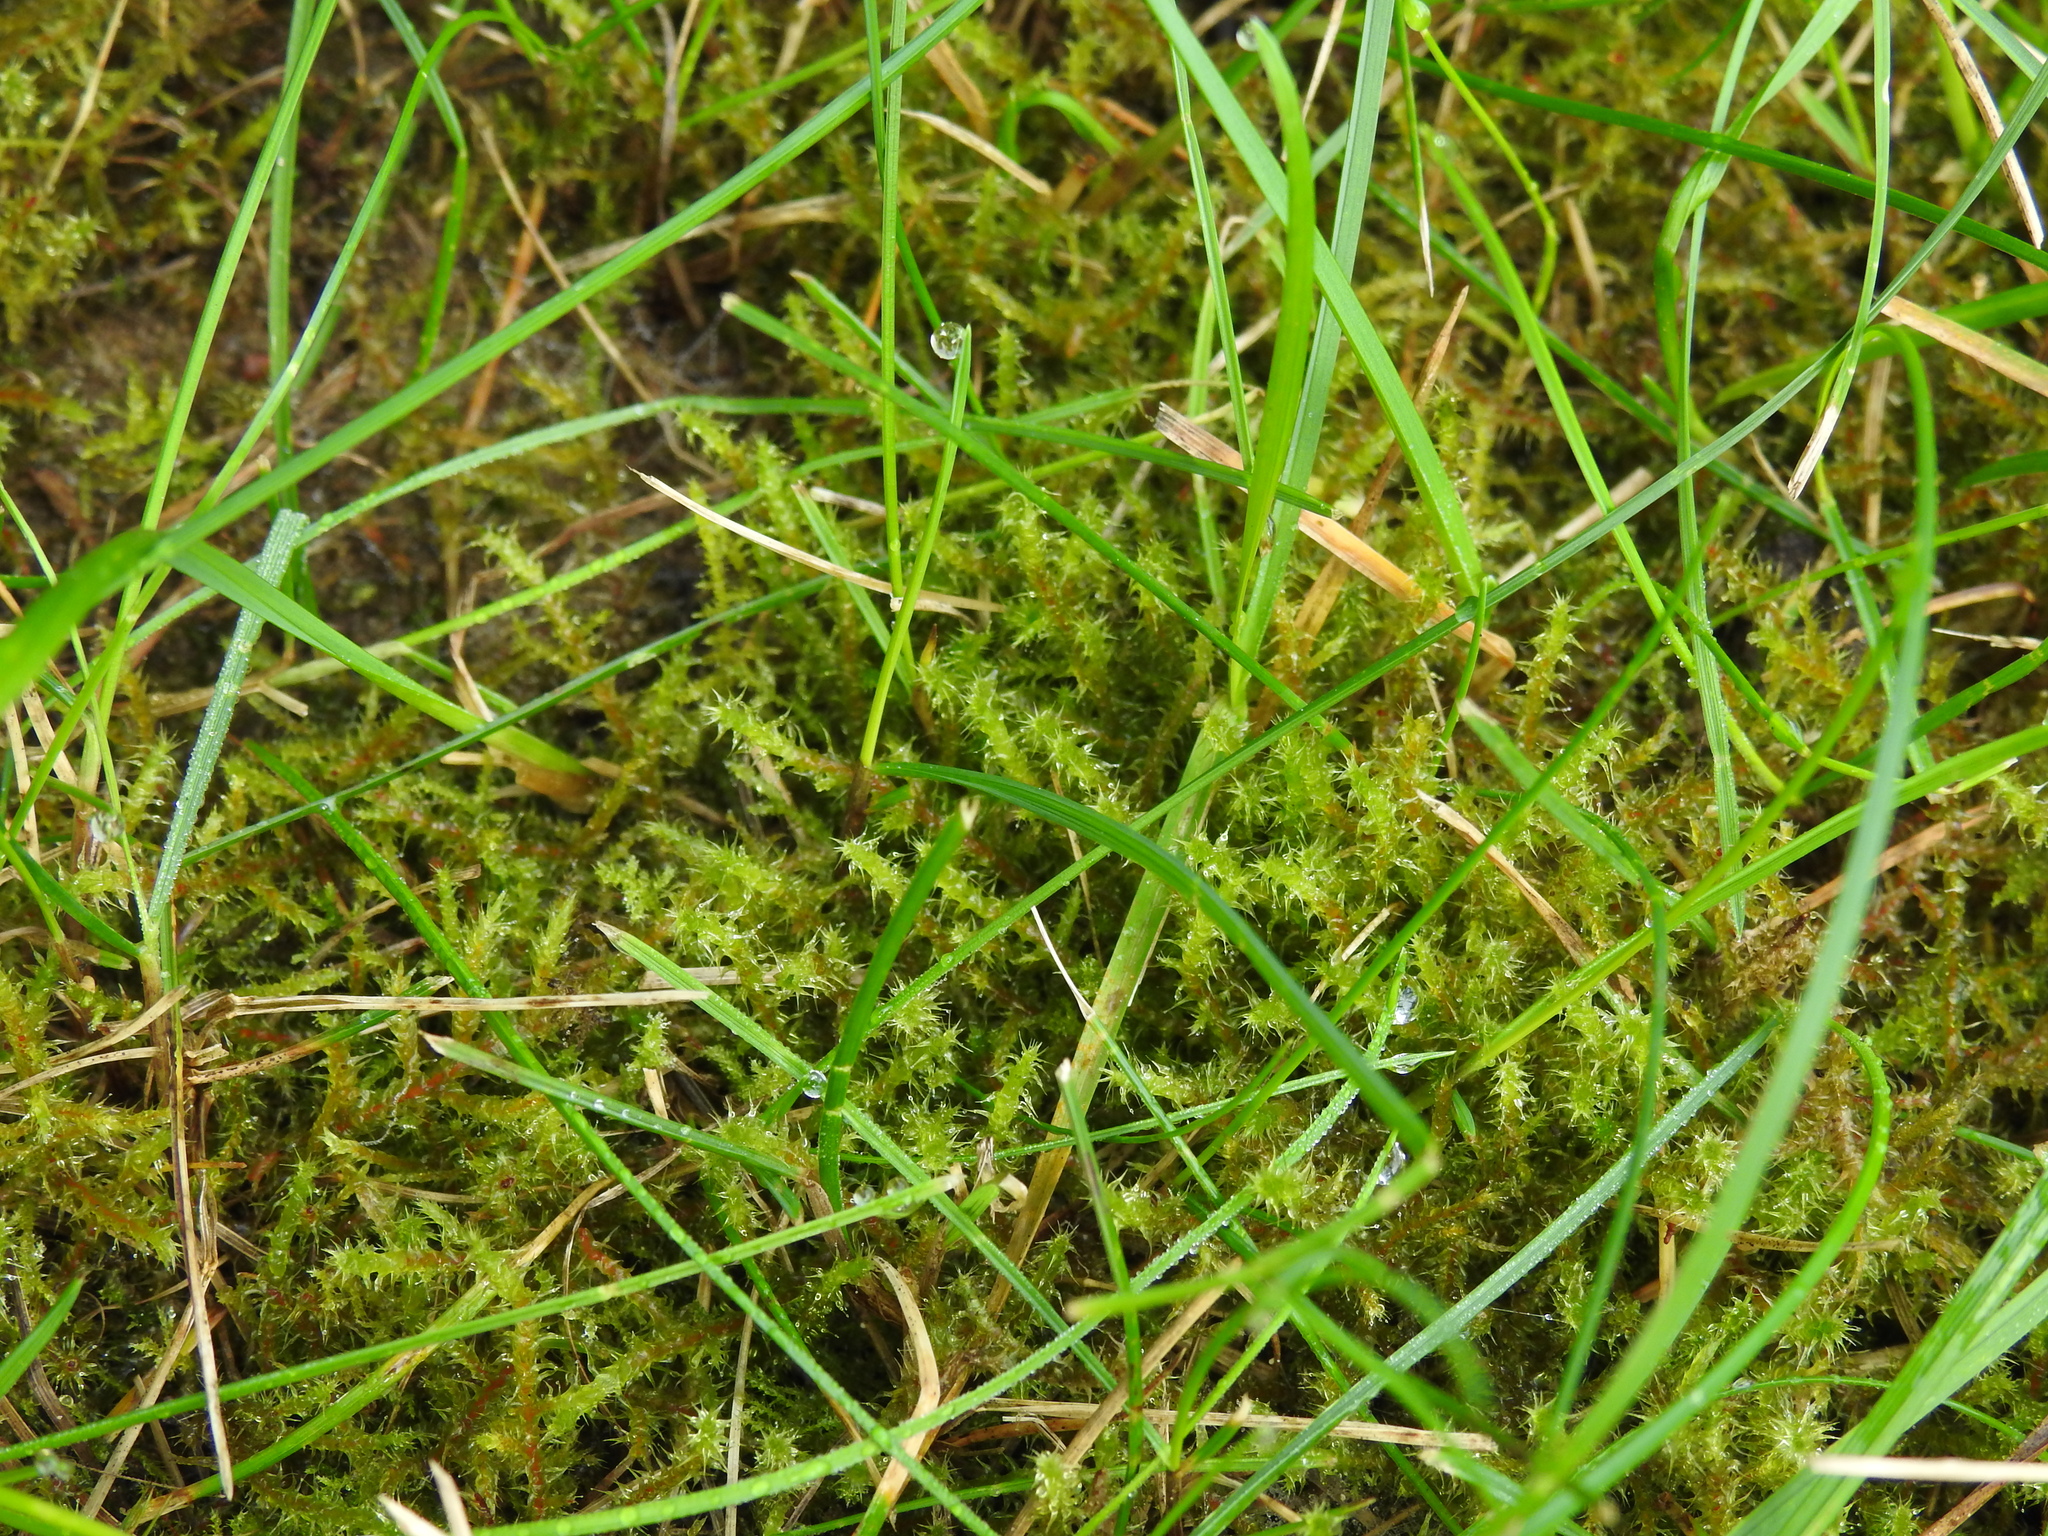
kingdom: Plantae
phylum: Bryophyta
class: Bryopsida
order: Hypnales
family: Hylocomiaceae
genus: Rhytidiadelphus
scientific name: Rhytidiadelphus squarrosus
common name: Springy turf-moss
